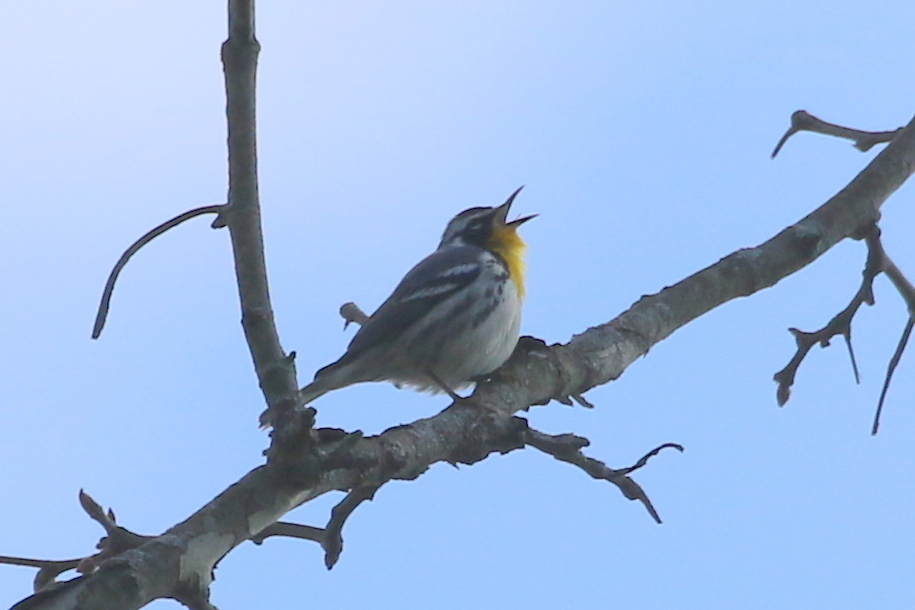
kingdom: Animalia
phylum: Chordata
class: Aves
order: Passeriformes
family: Parulidae
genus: Setophaga
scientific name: Setophaga dominica
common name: Yellow-throated warbler
